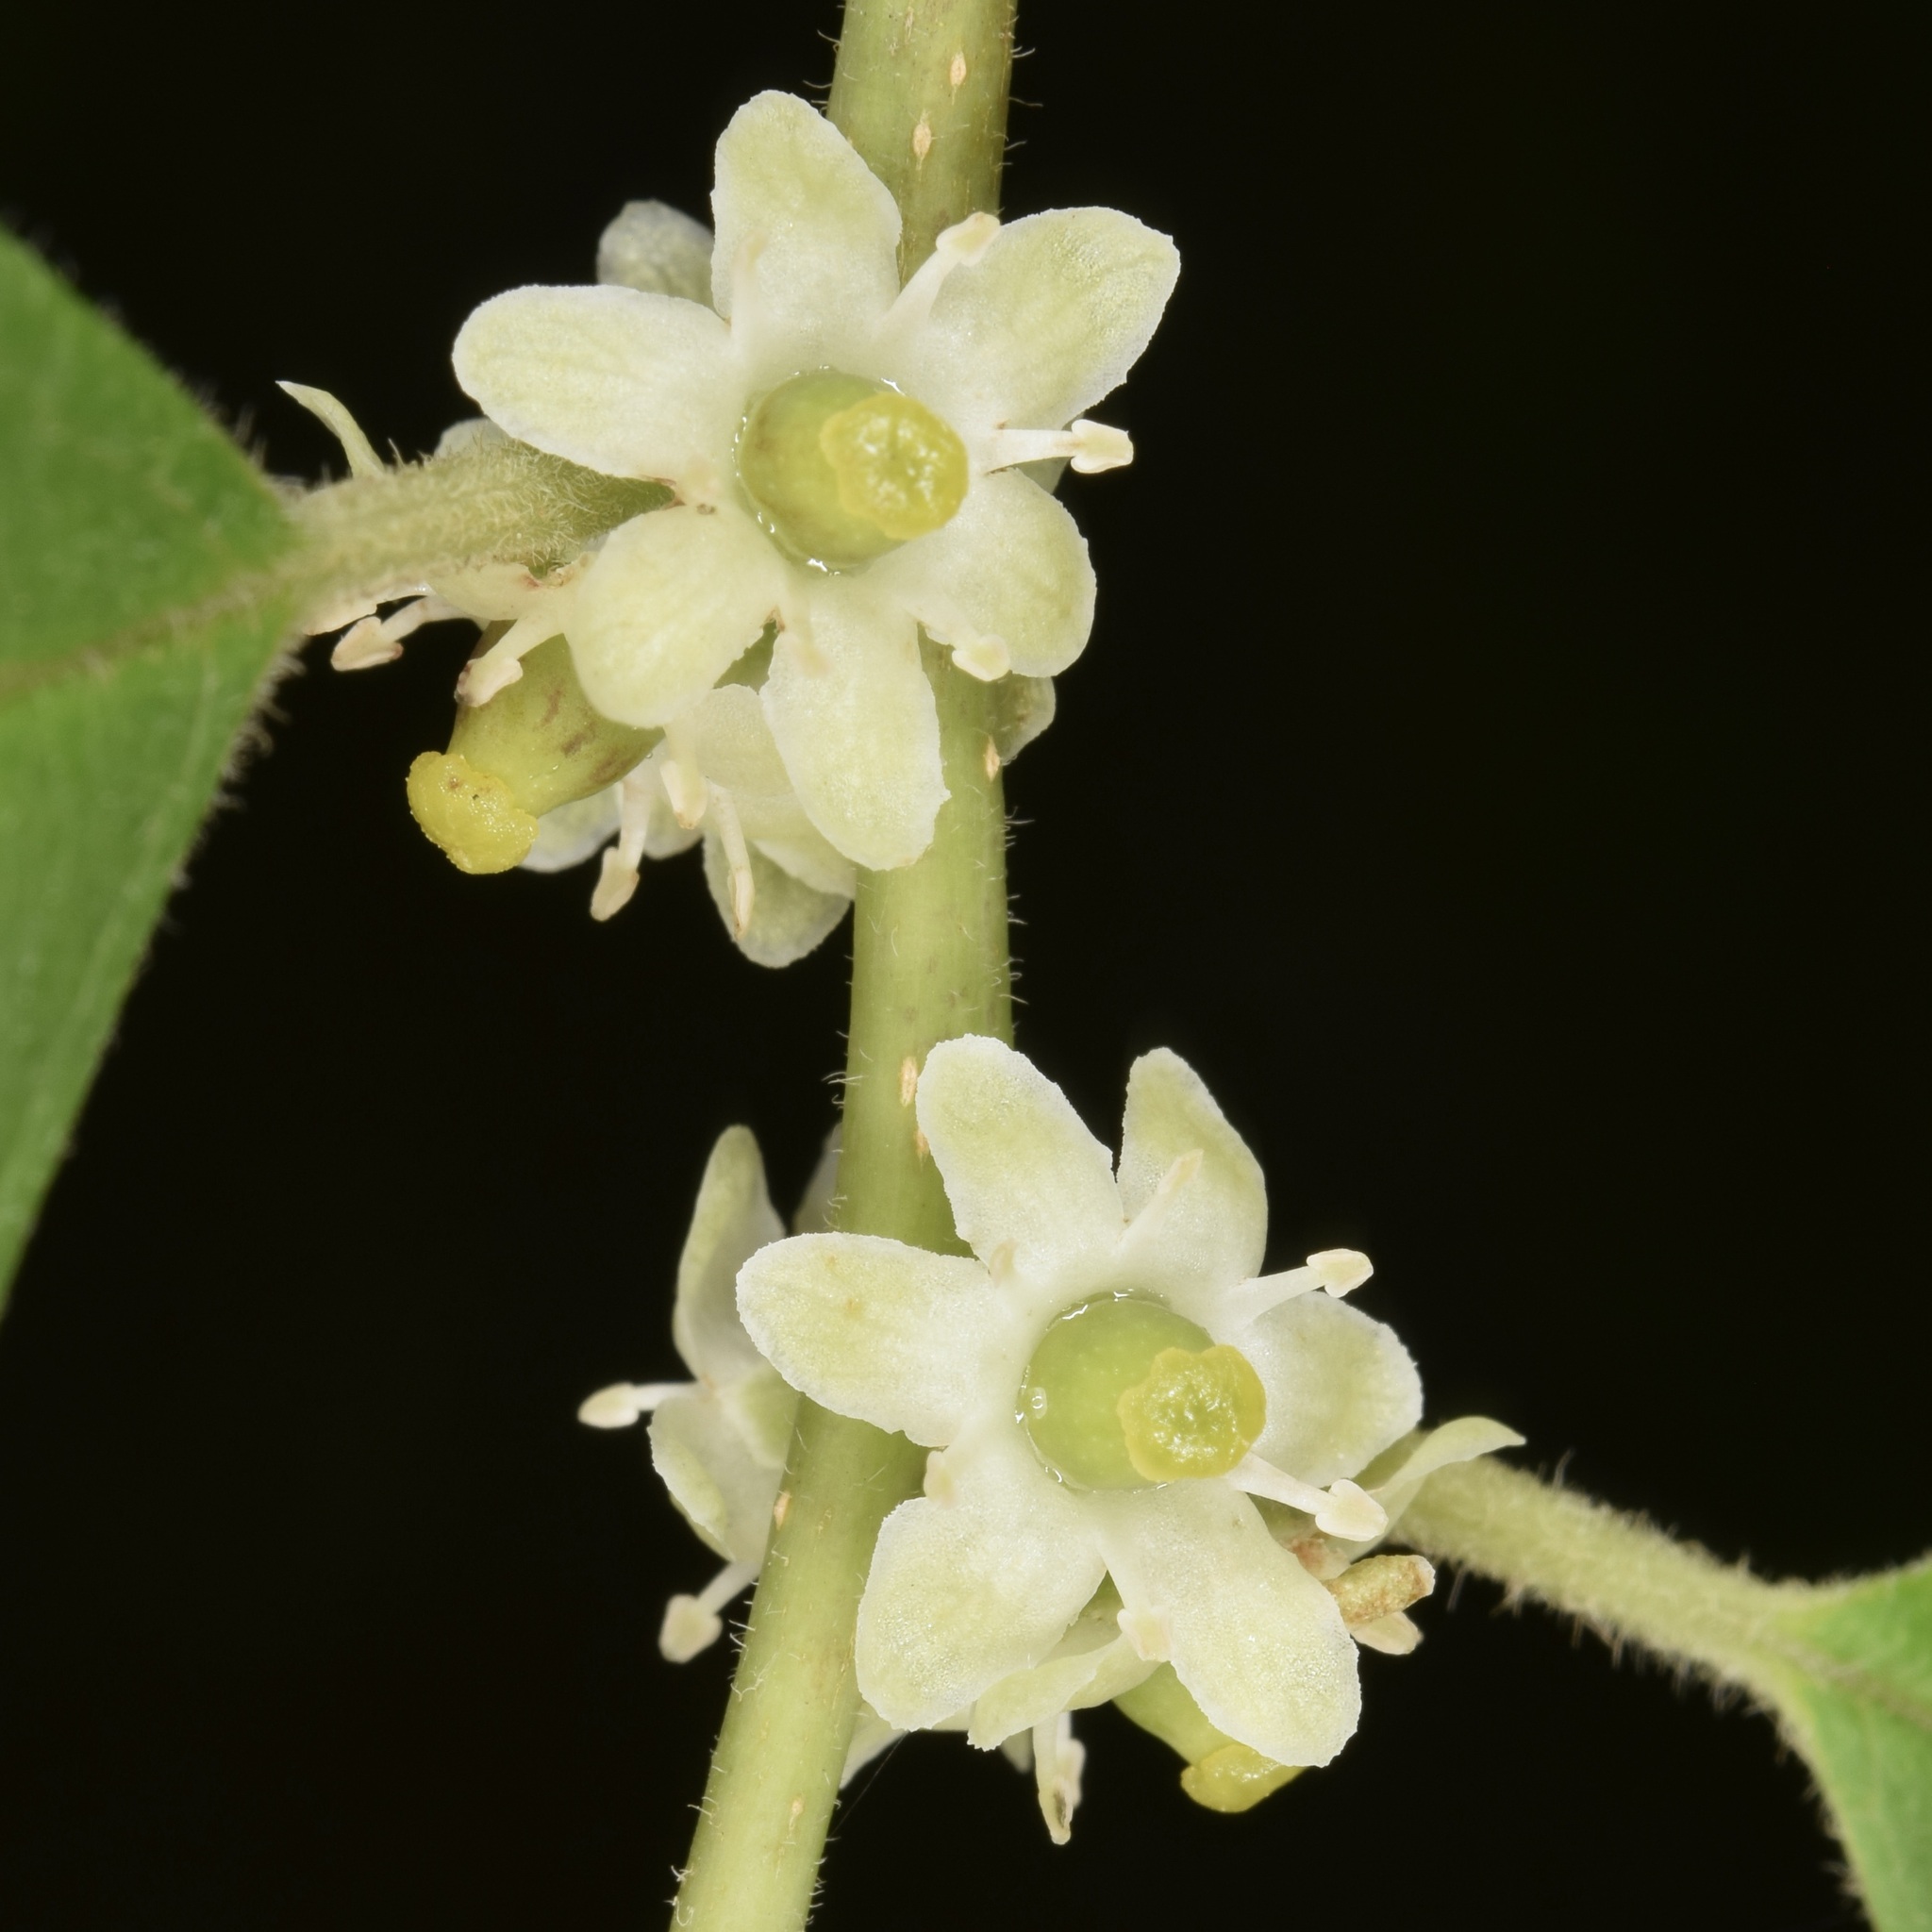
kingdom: Plantae
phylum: Tracheophyta
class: Magnoliopsida
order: Aquifoliales
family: Aquifoliaceae
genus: Ilex
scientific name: Ilex verticillata
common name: Virginia winterberry
